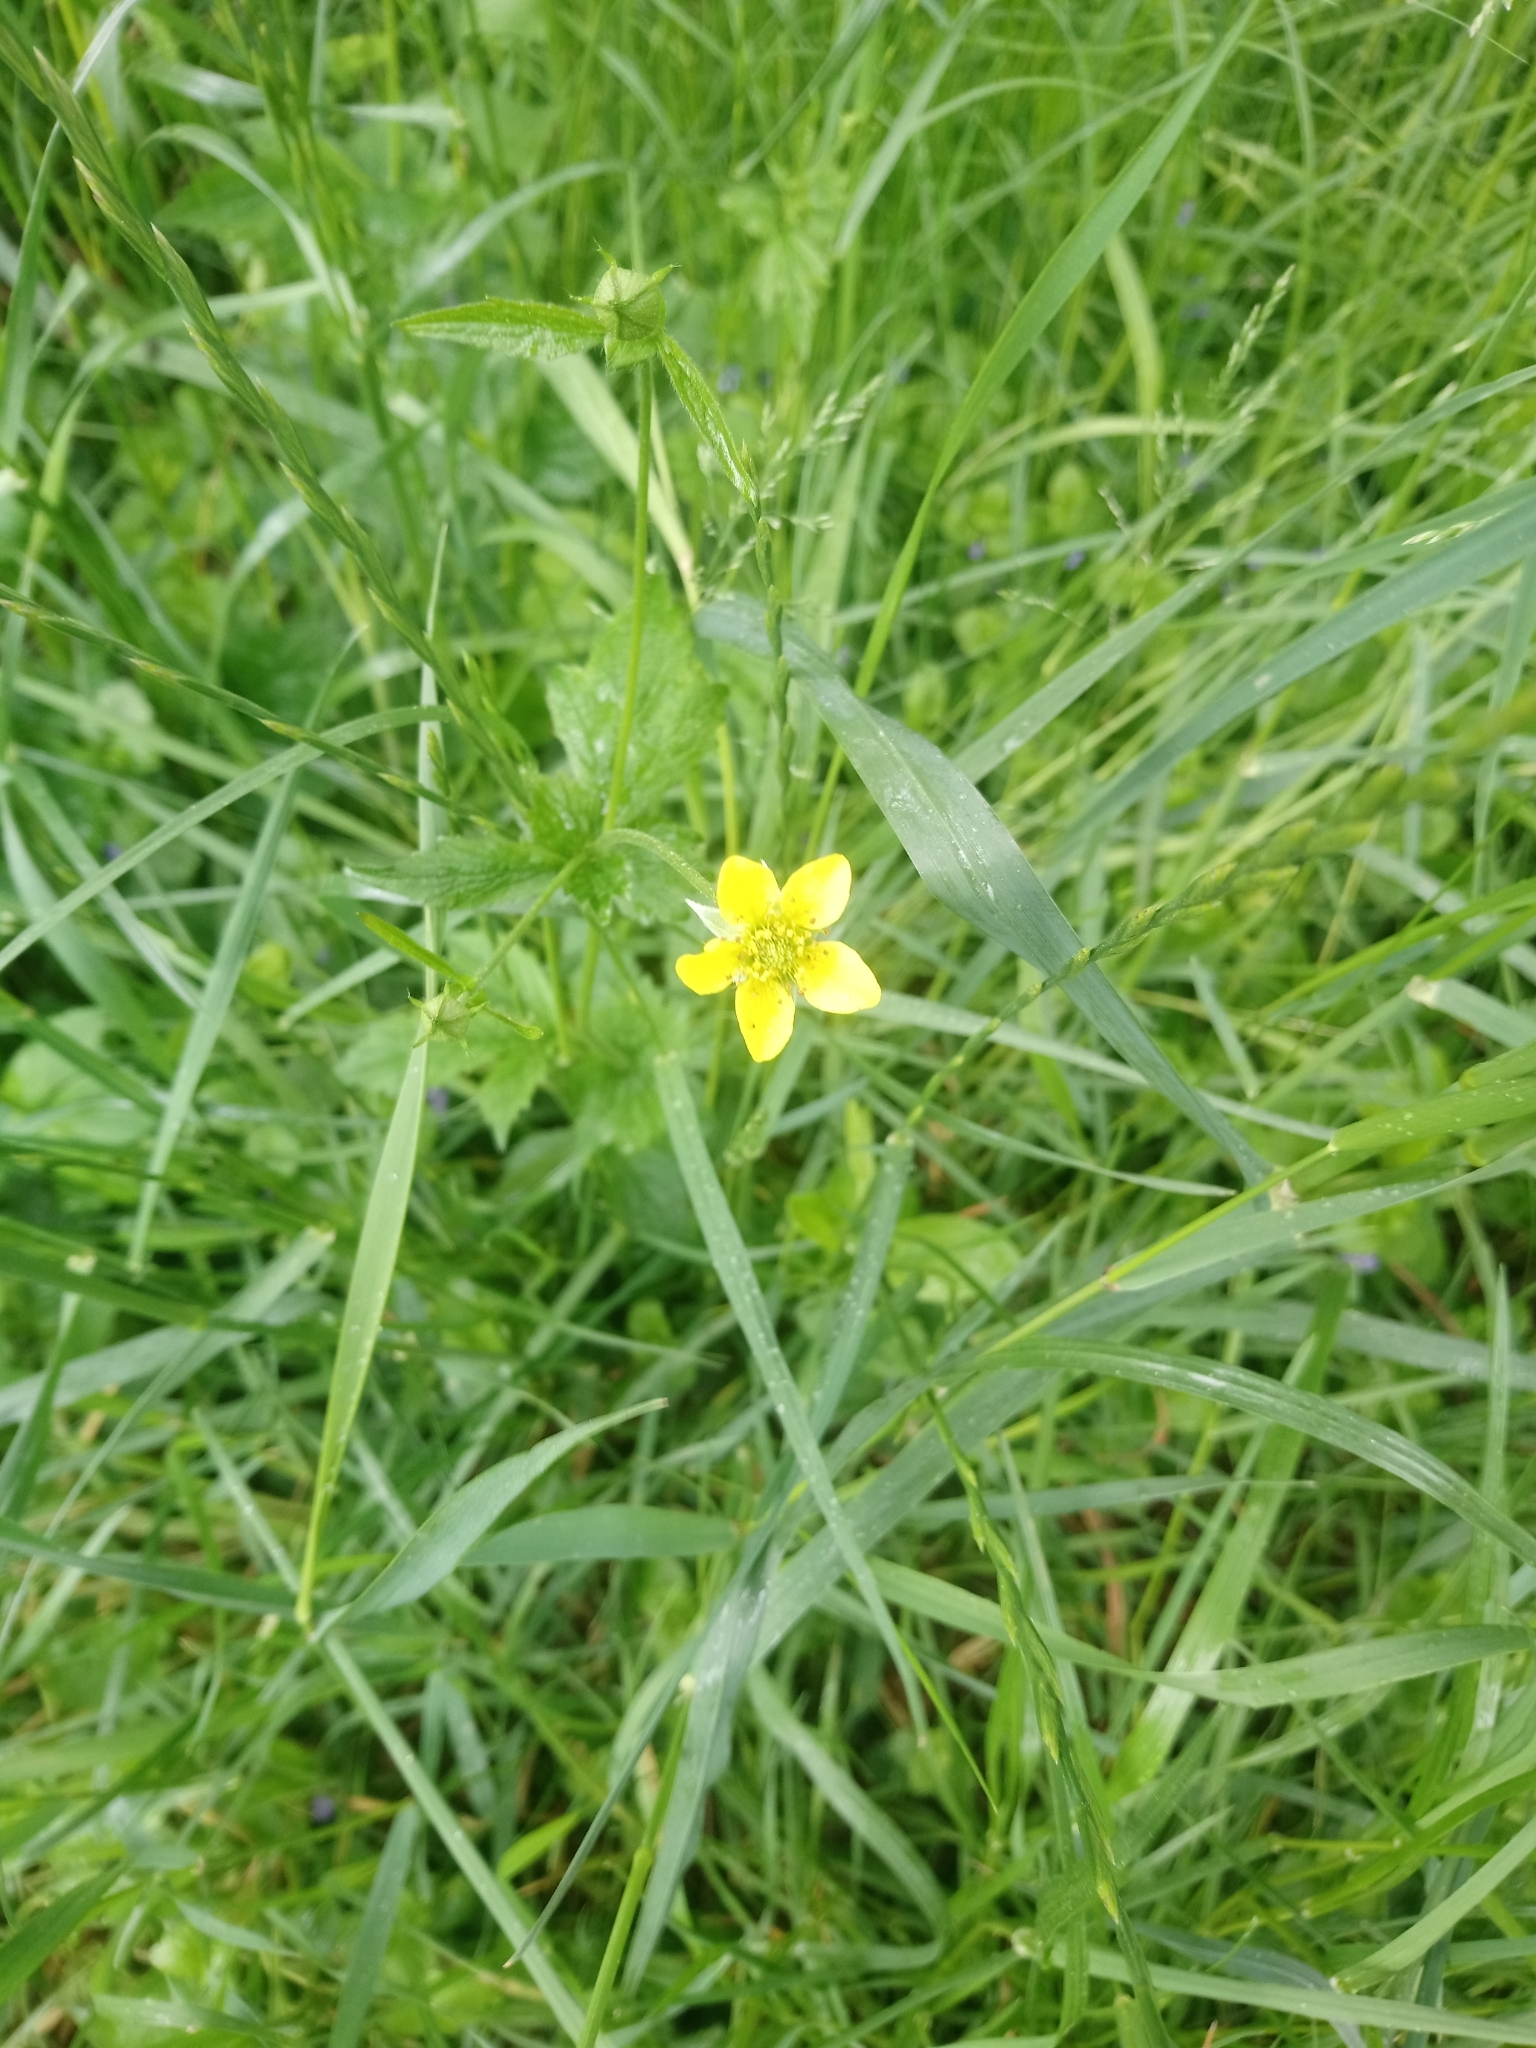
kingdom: Plantae
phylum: Tracheophyta
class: Magnoliopsida
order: Rosales
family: Rosaceae
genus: Geum
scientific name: Geum urbanum
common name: Wood avens
